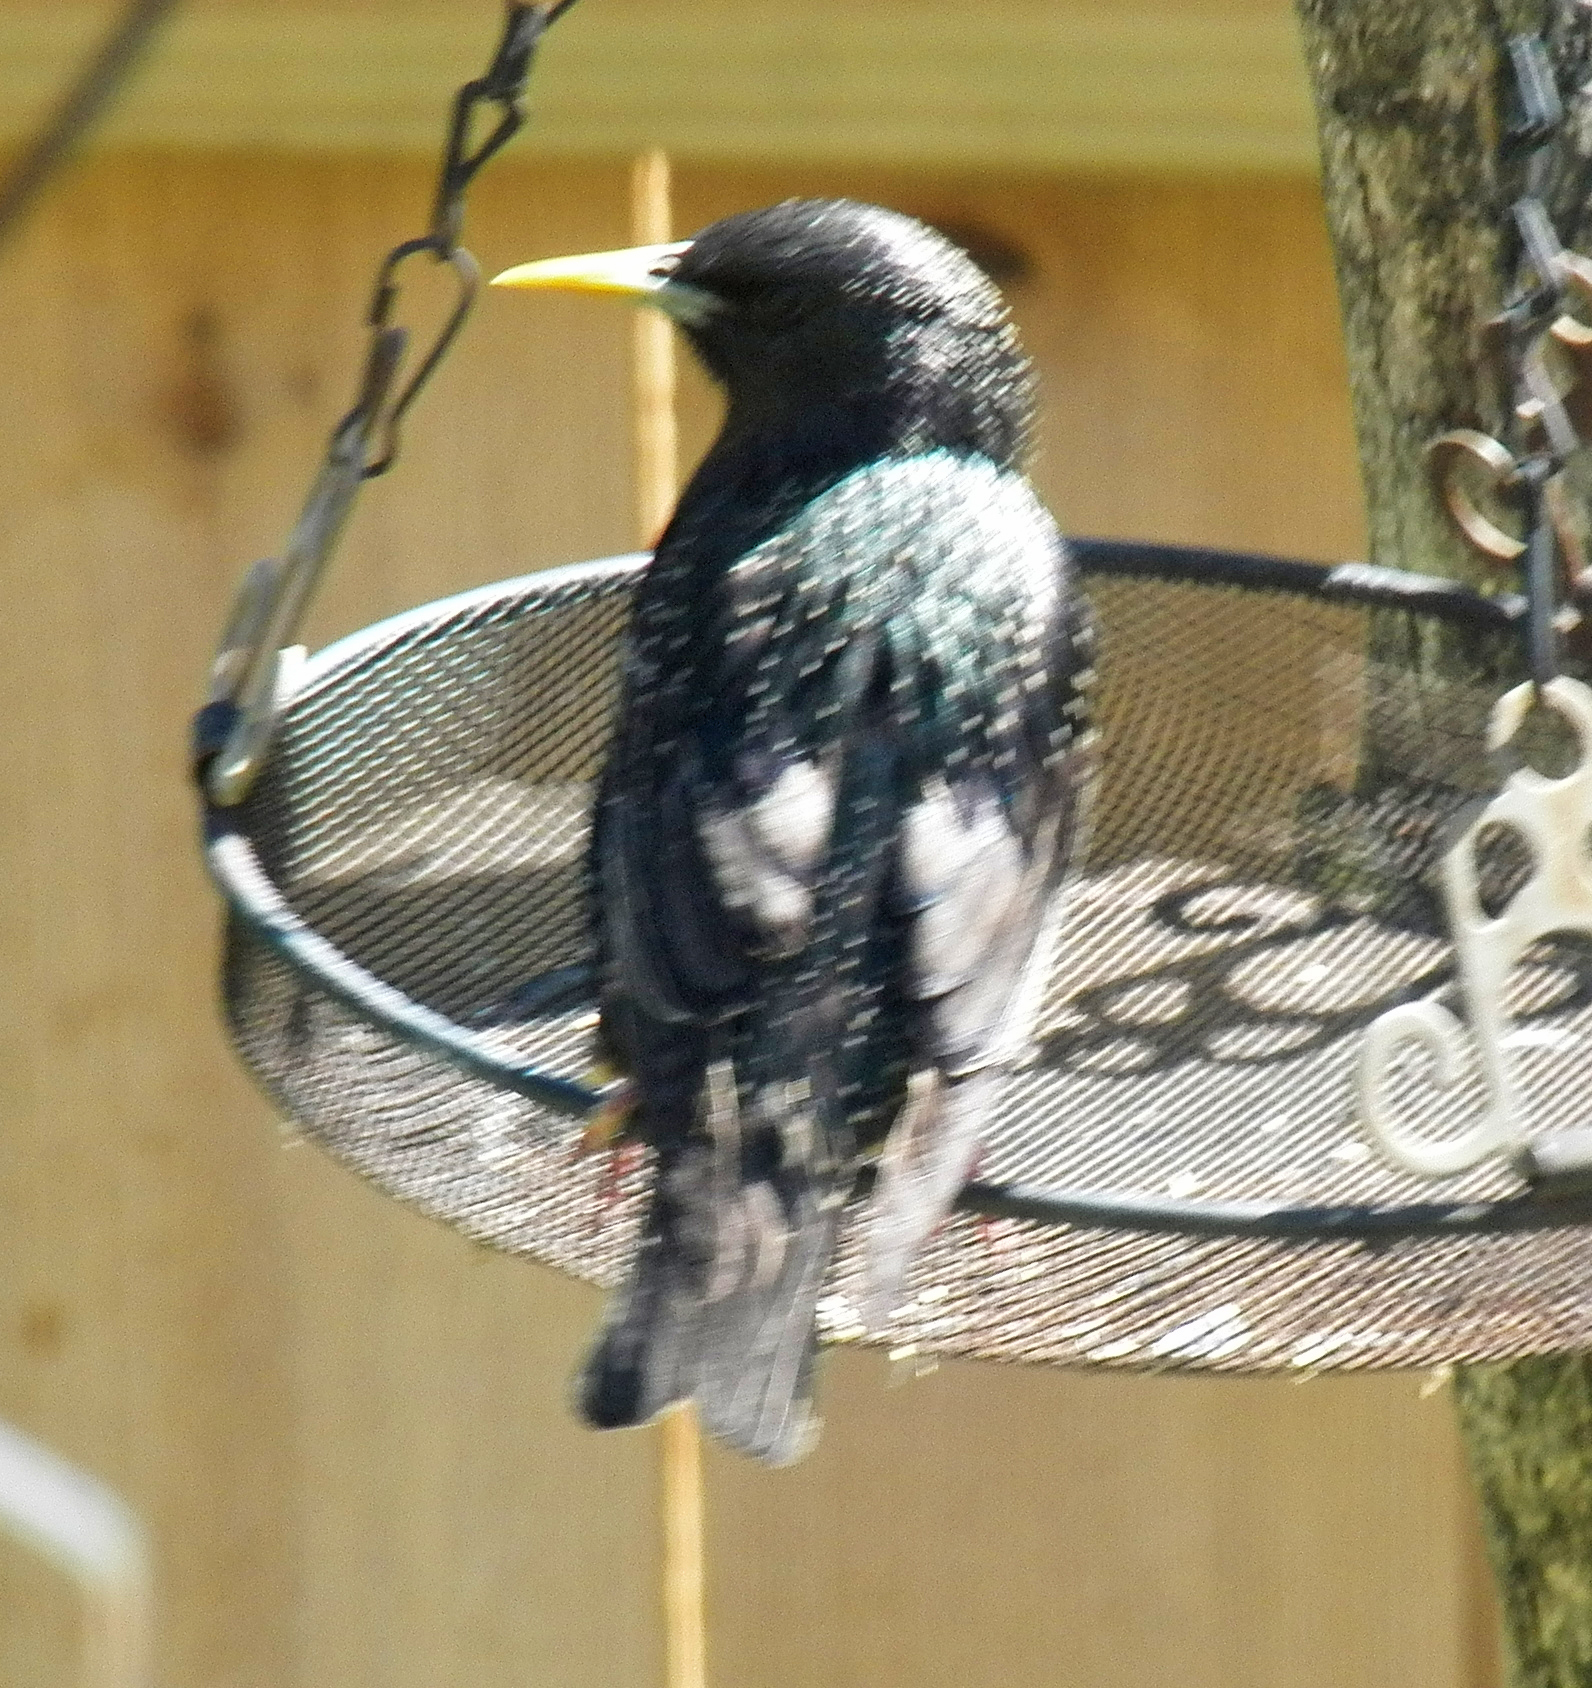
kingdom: Animalia
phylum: Chordata
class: Aves
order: Passeriformes
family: Sturnidae
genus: Sturnus
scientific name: Sturnus vulgaris
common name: Common starling
